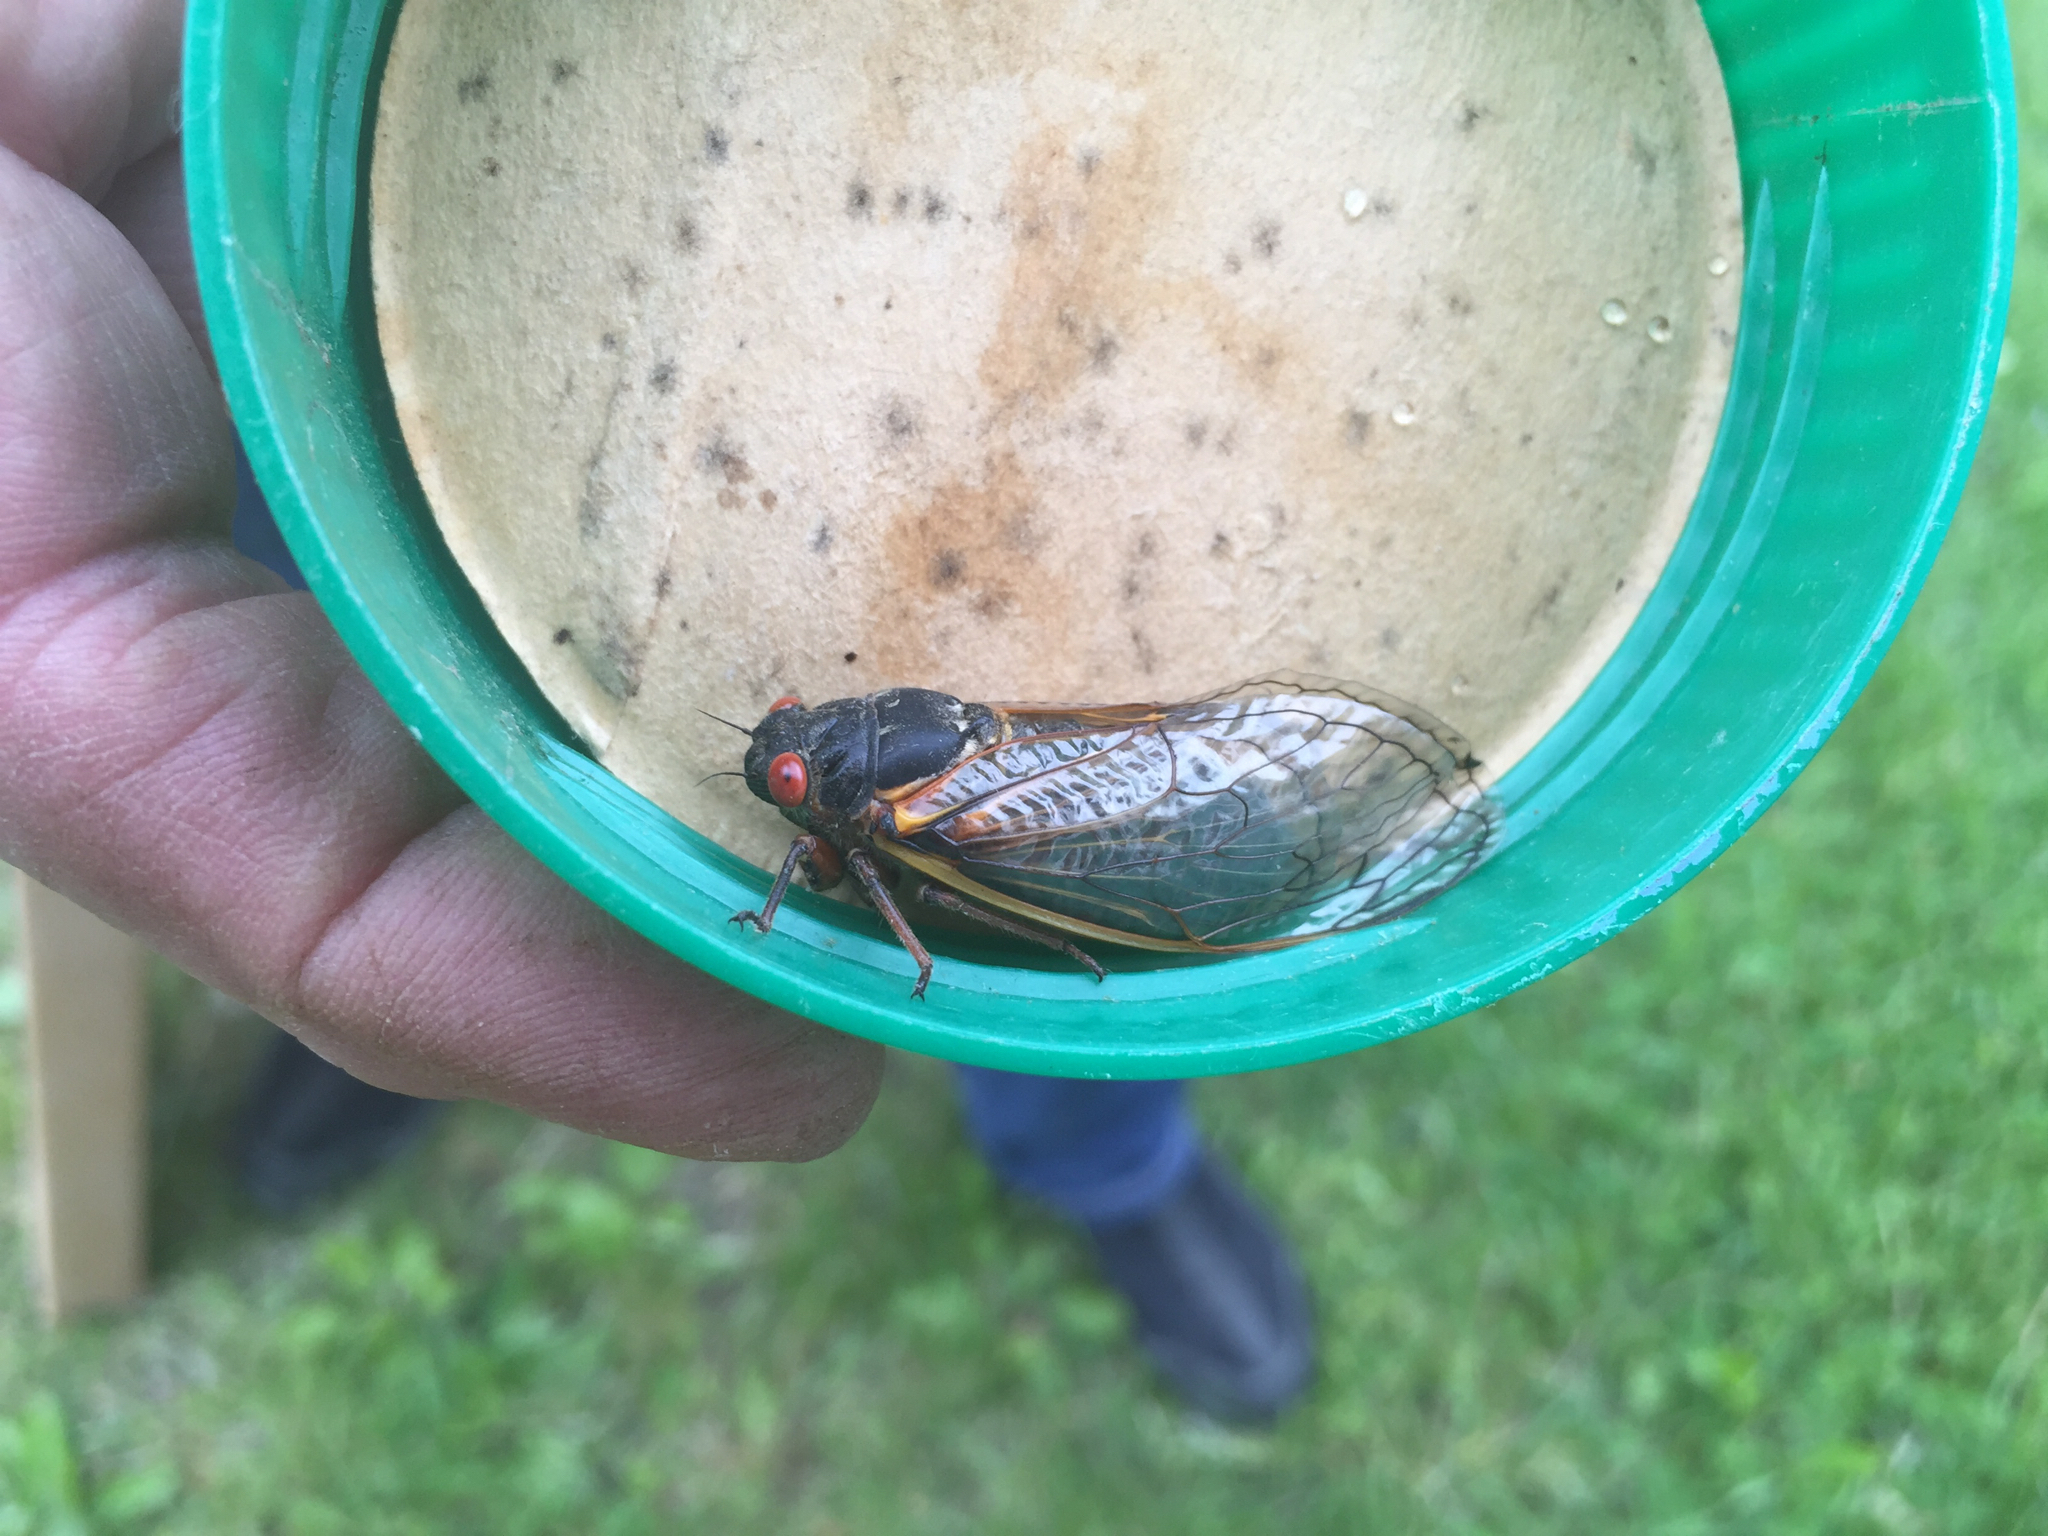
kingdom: Animalia
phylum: Arthropoda
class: Insecta
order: Hemiptera
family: Cicadidae
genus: Magicicada
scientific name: Magicicada
